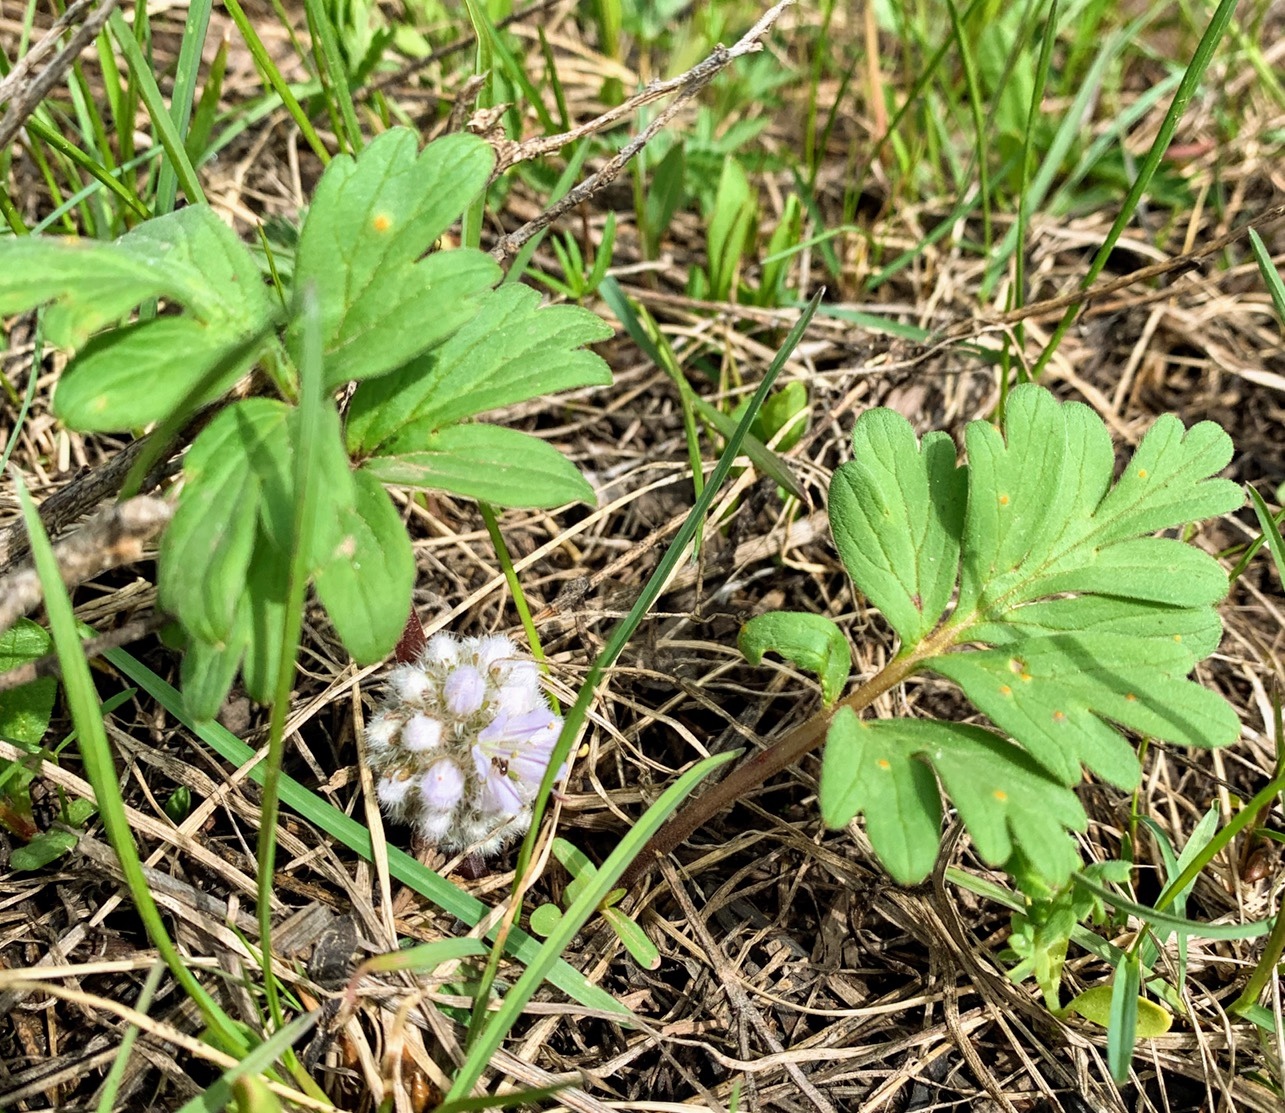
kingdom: Plantae
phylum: Tracheophyta
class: Magnoliopsida
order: Boraginales
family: Hydrophyllaceae
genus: Hydrophyllum
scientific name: Hydrophyllum capitatum
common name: Woollen-breeches
